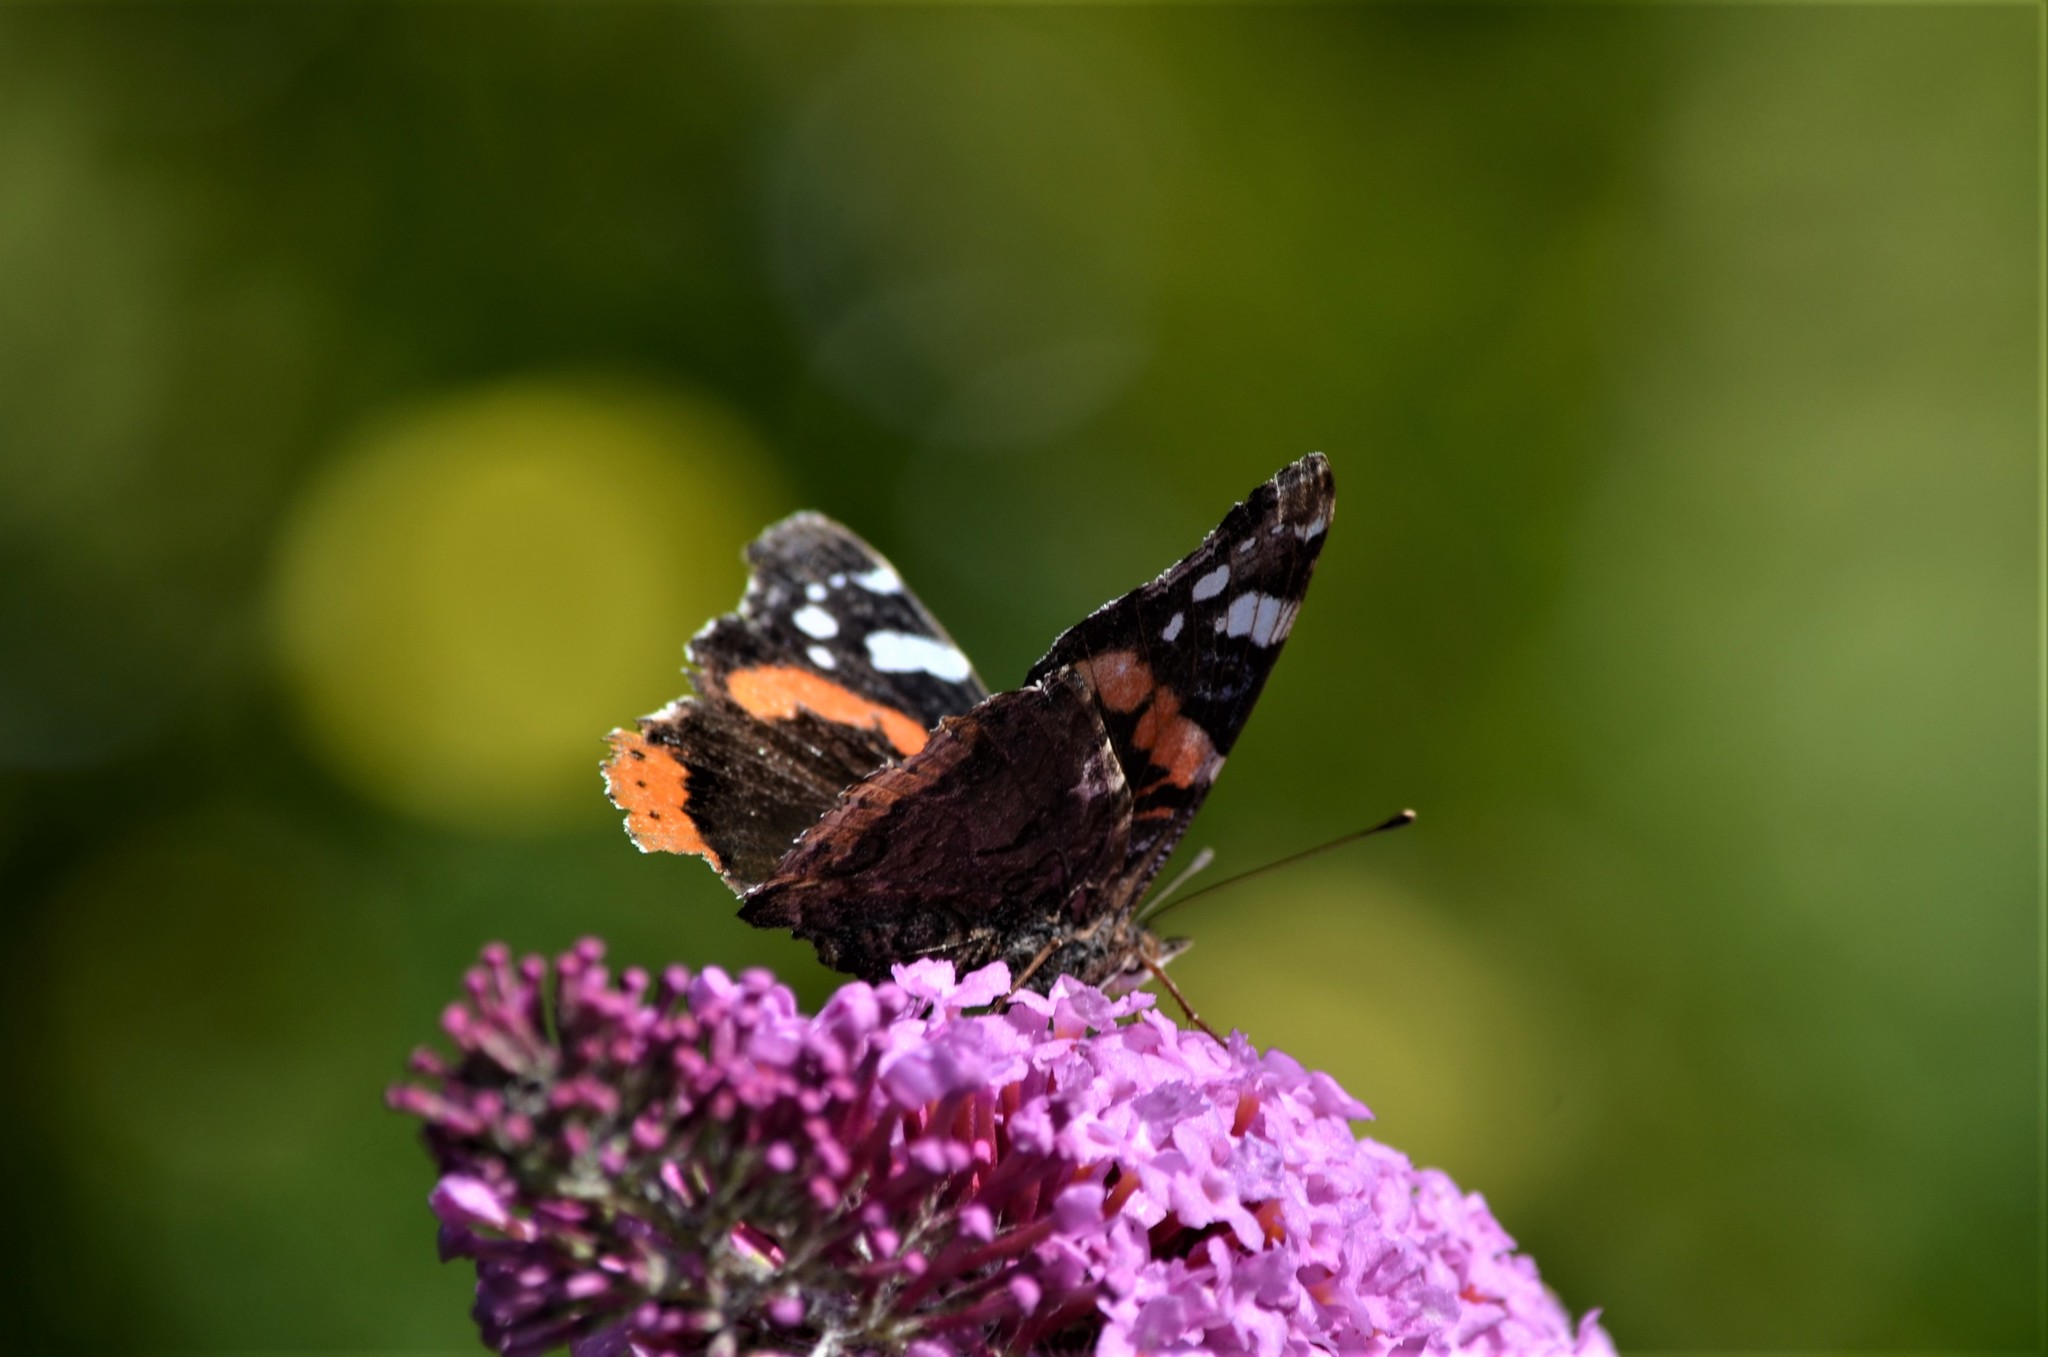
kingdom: Animalia
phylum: Arthropoda
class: Insecta
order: Lepidoptera
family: Nymphalidae
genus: Vanessa
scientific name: Vanessa atalanta
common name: Red admiral
